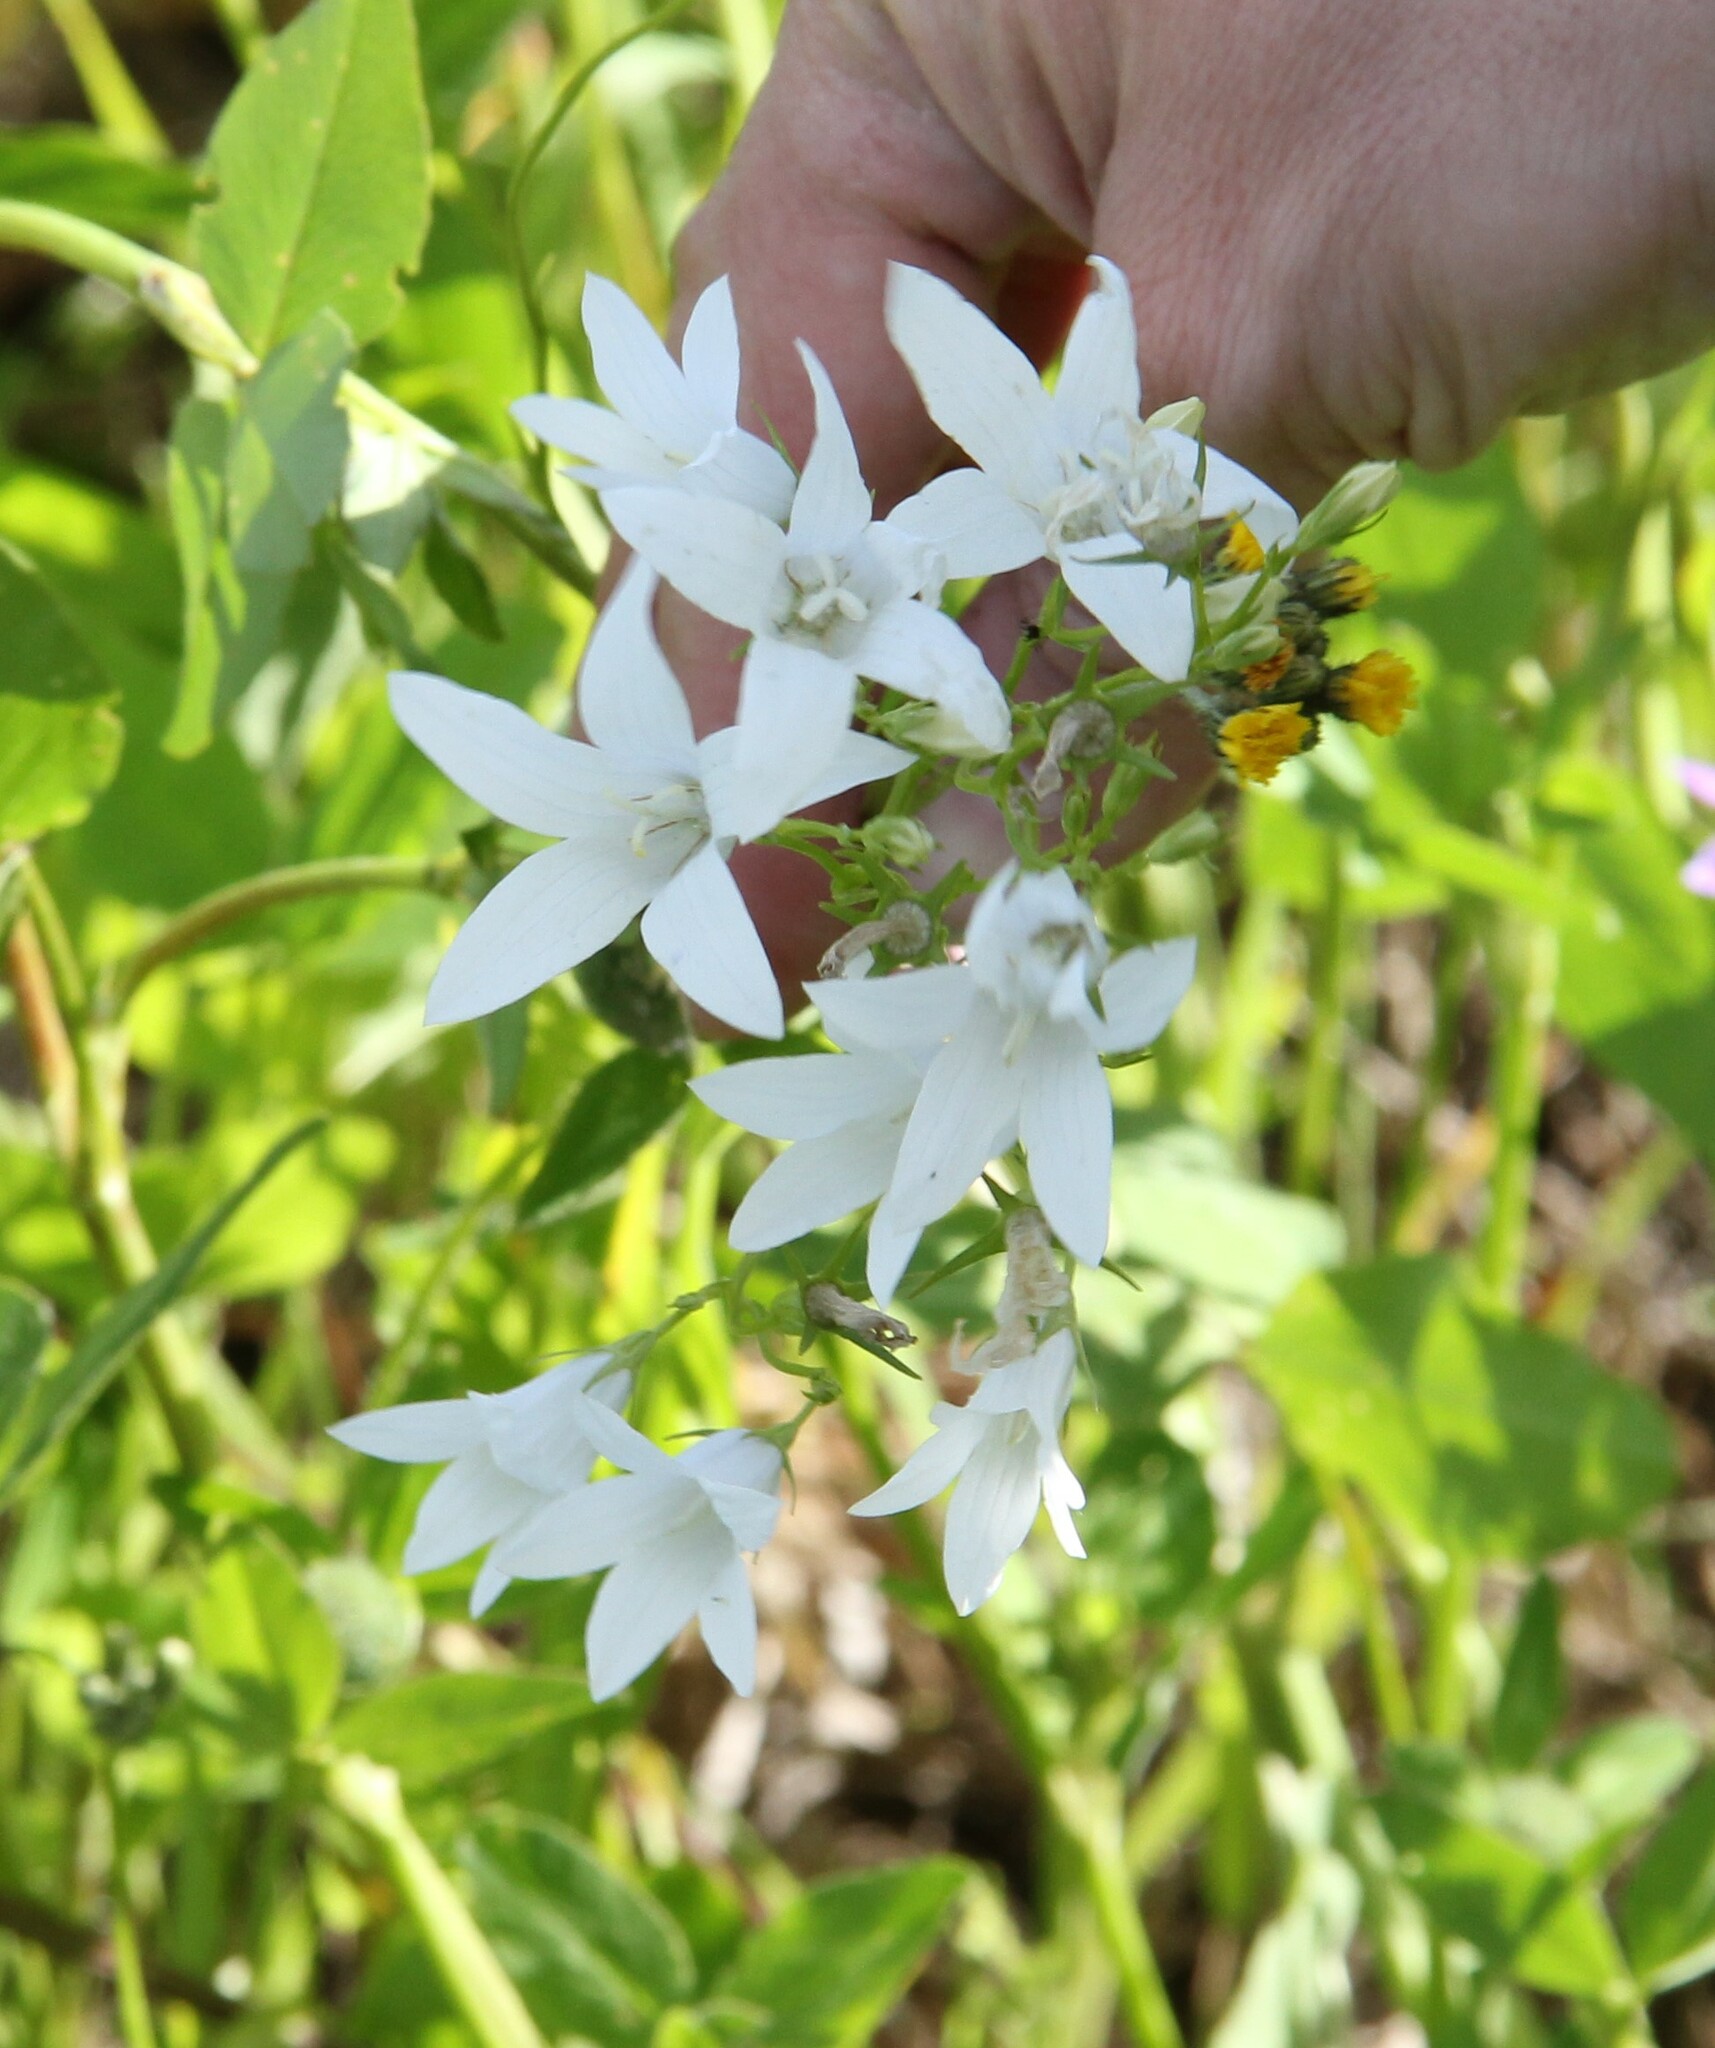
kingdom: Plantae
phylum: Tracheophyta
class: Magnoliopsida
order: Asterales
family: Campanulaceae
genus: Campanula
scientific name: Campanula patula
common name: Spreading bellflower
